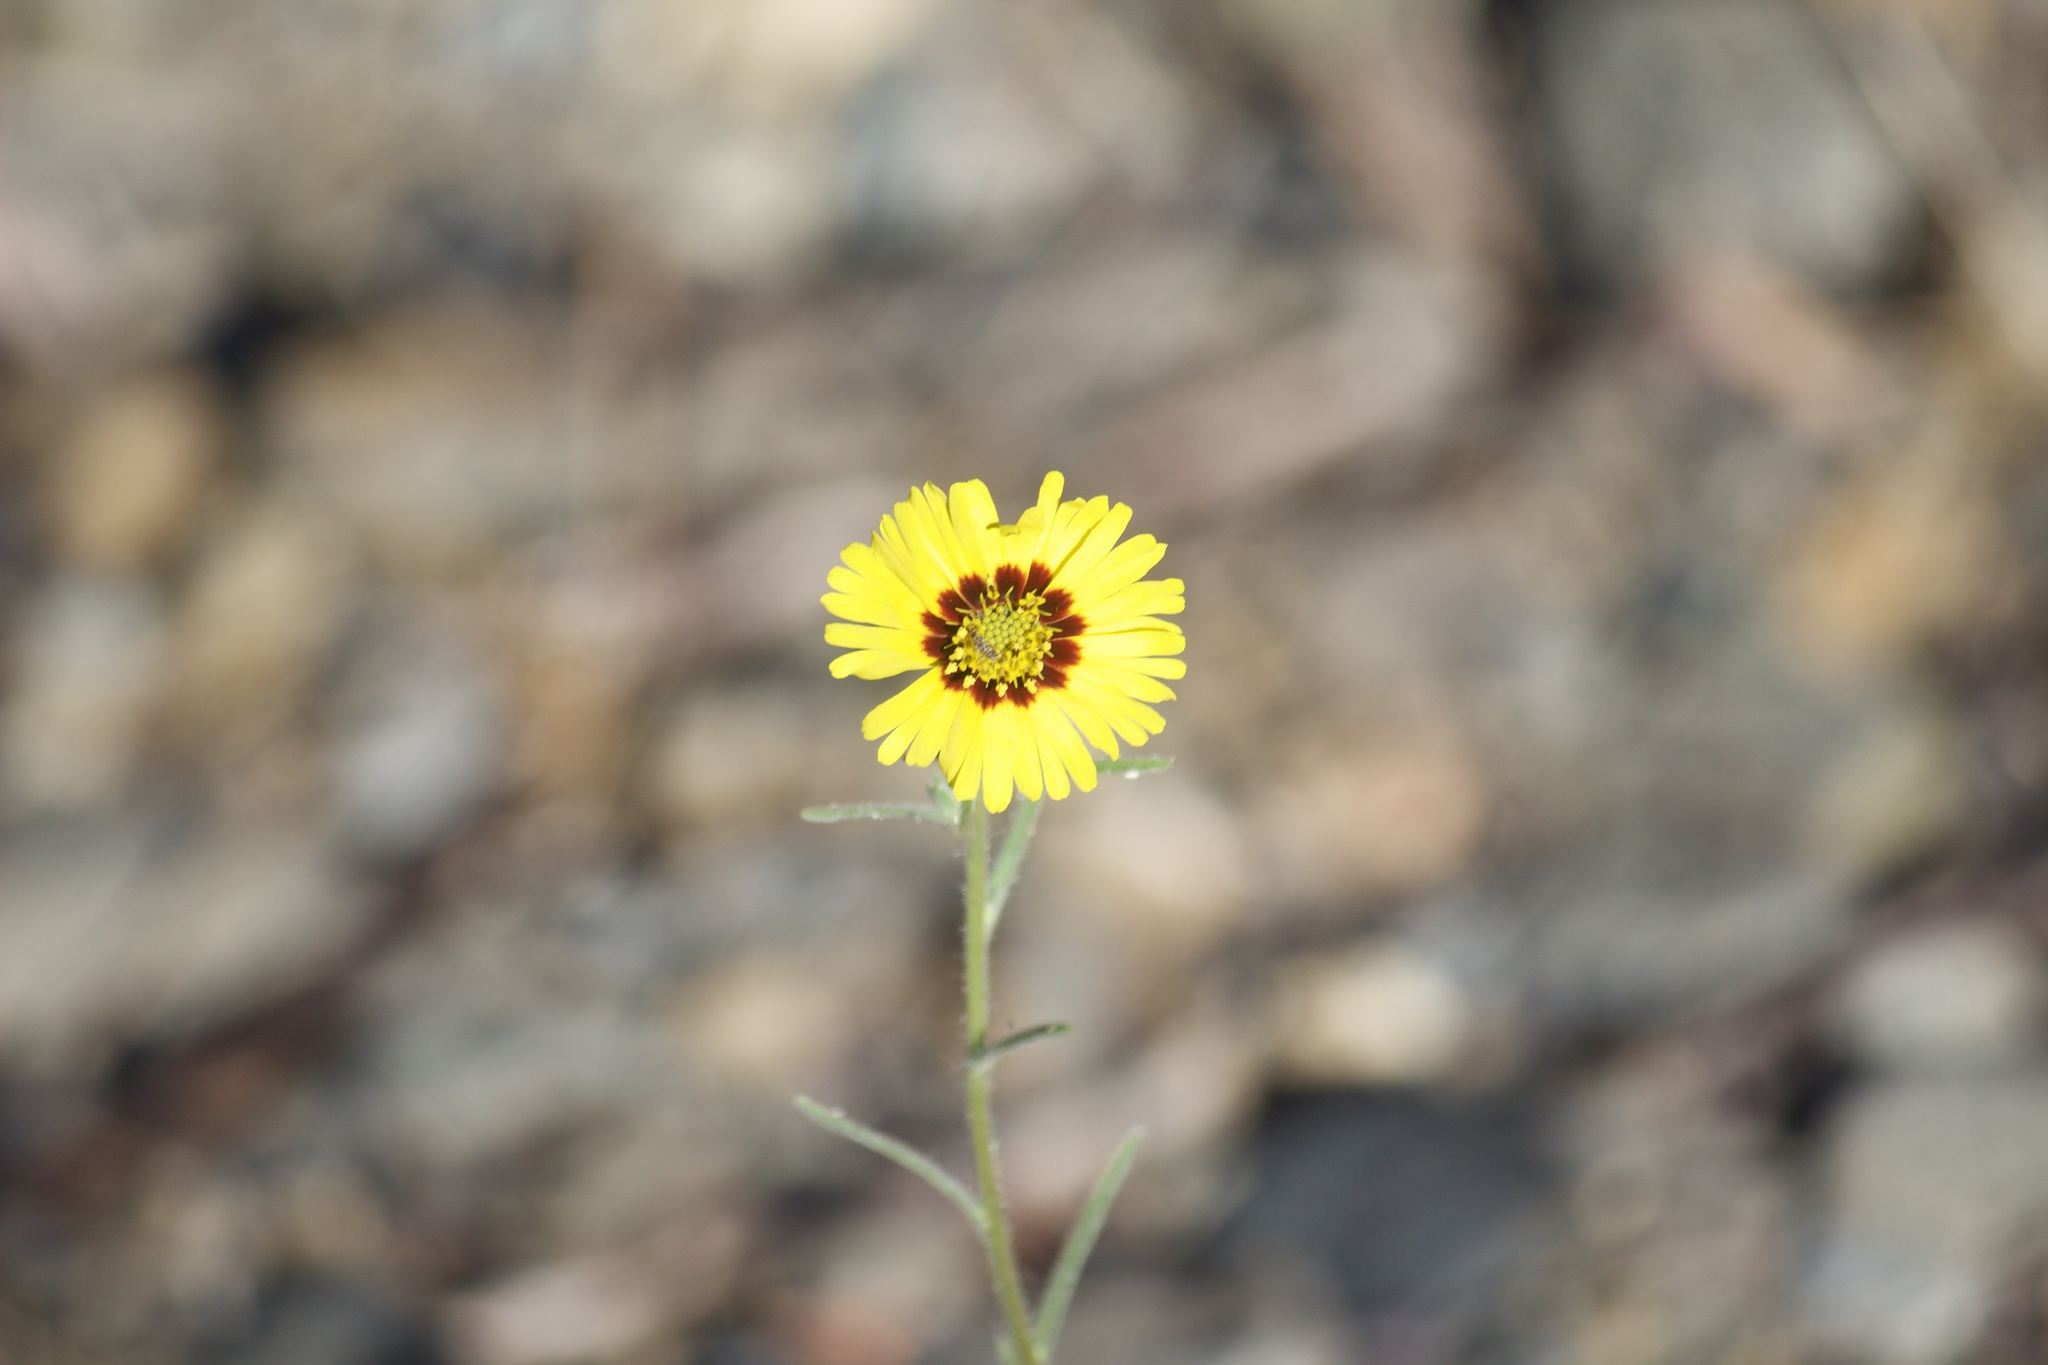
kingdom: Plantae
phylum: Tracheophyta
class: Magnoliopsida
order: Asterales
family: Asteraceae
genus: Madia
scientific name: Madia elegans
